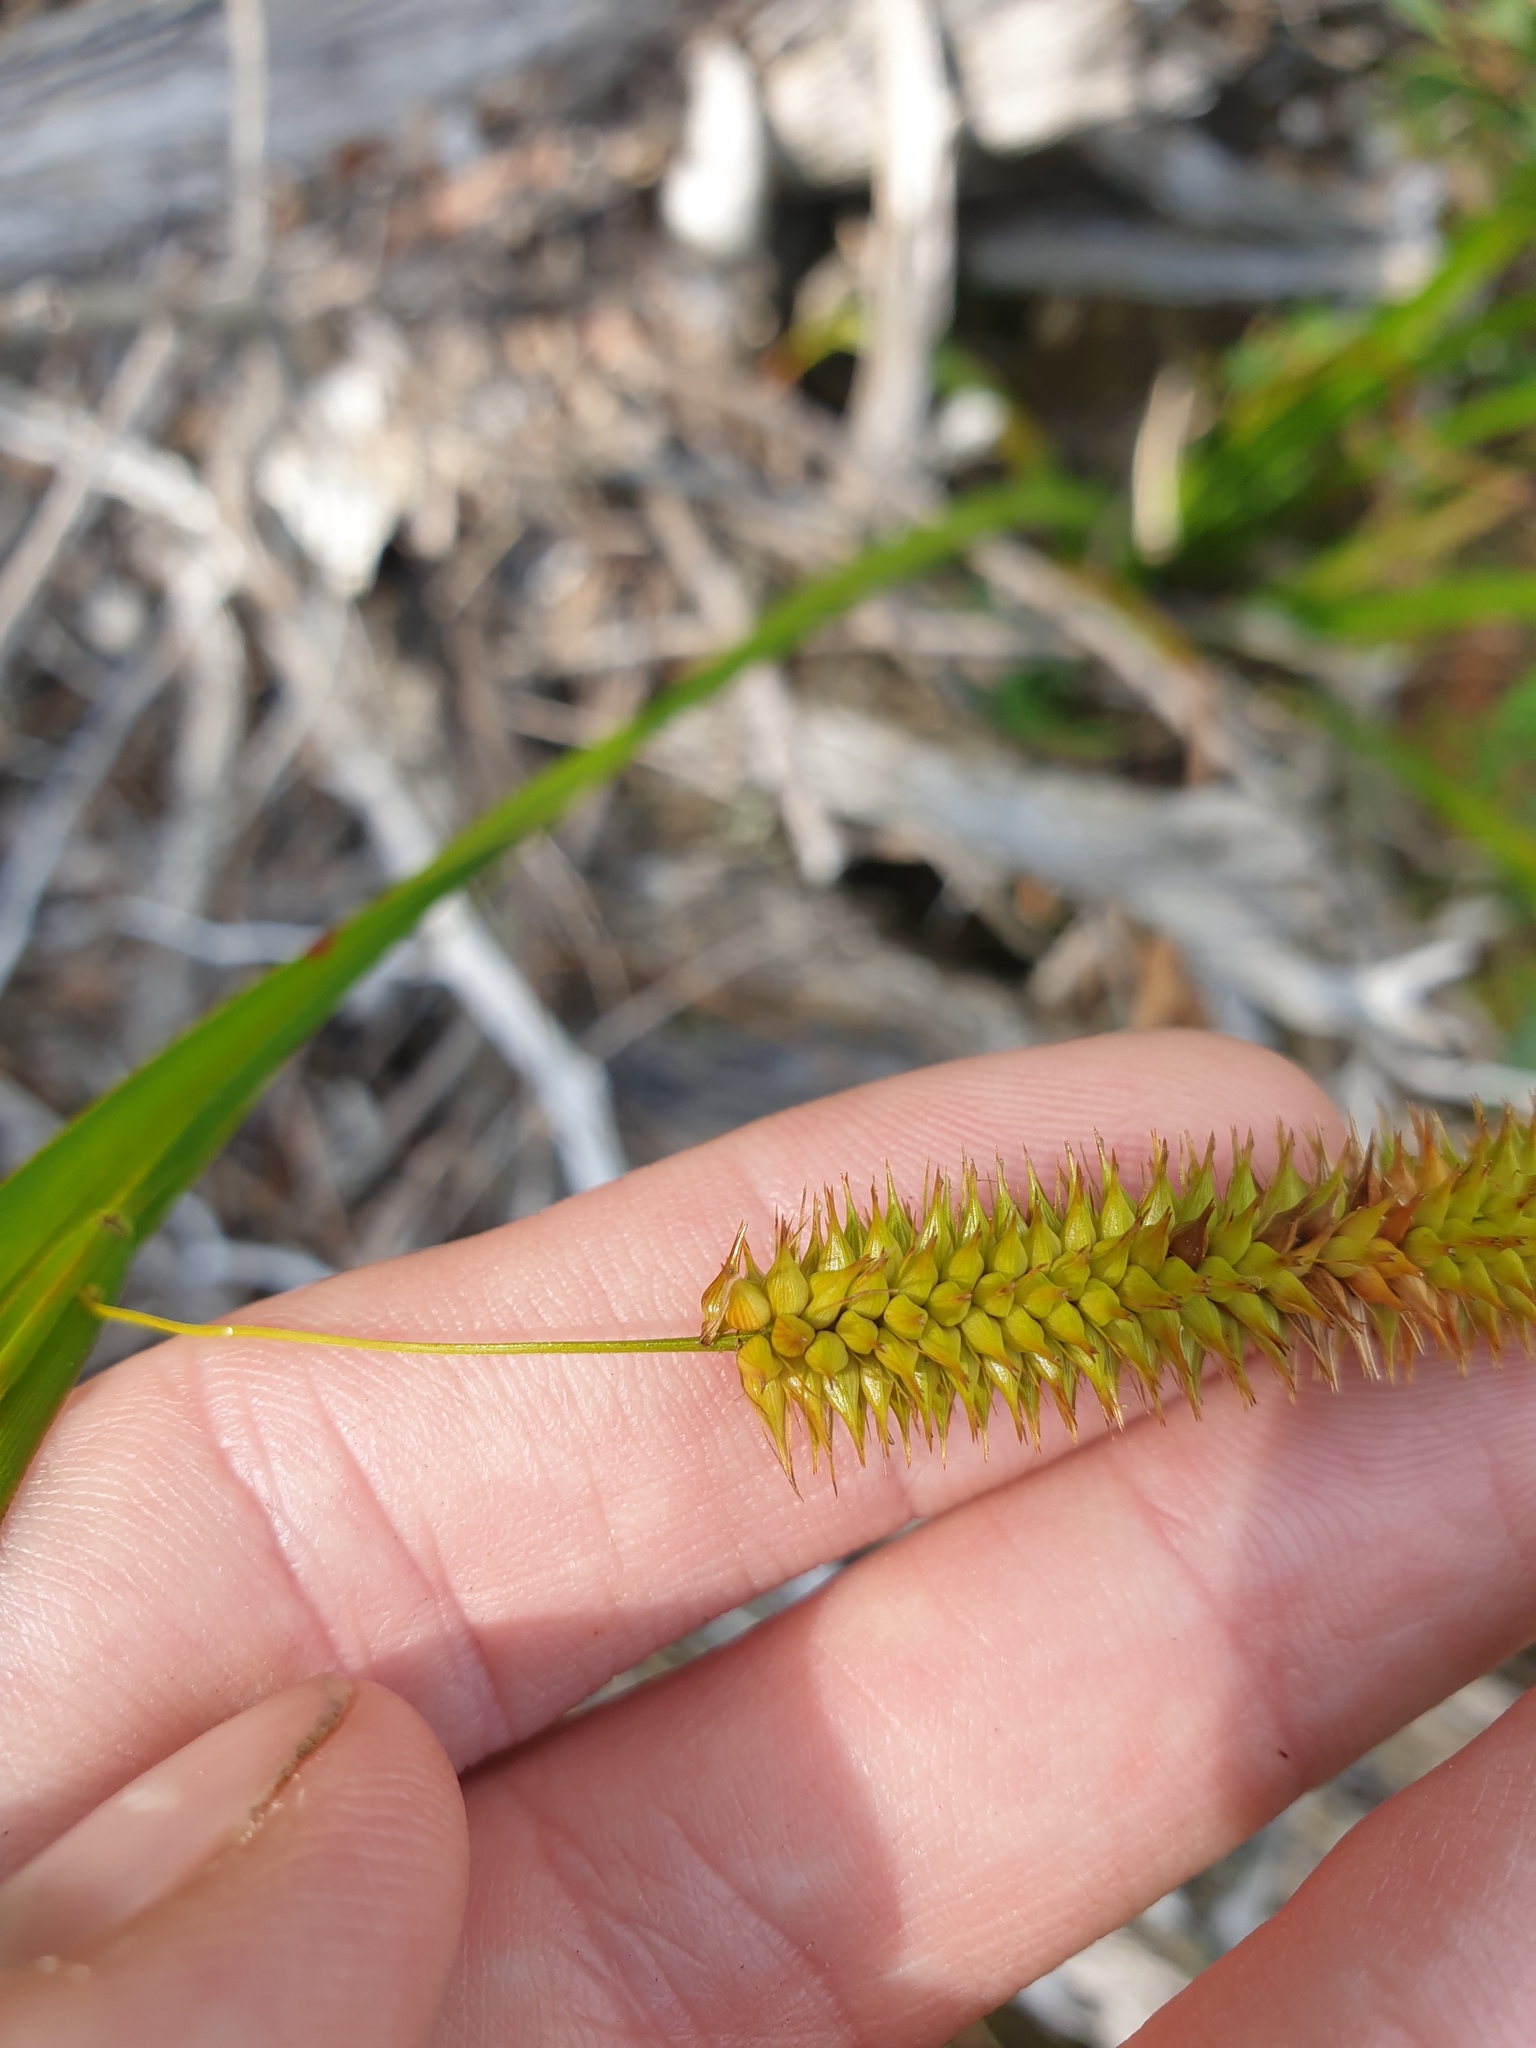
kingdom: Plantae
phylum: Tracheophyta
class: Liliopsida
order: Poales
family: Cyperaceae
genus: Carex
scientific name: Carex pseudocyperus
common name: Cyperus sedge
